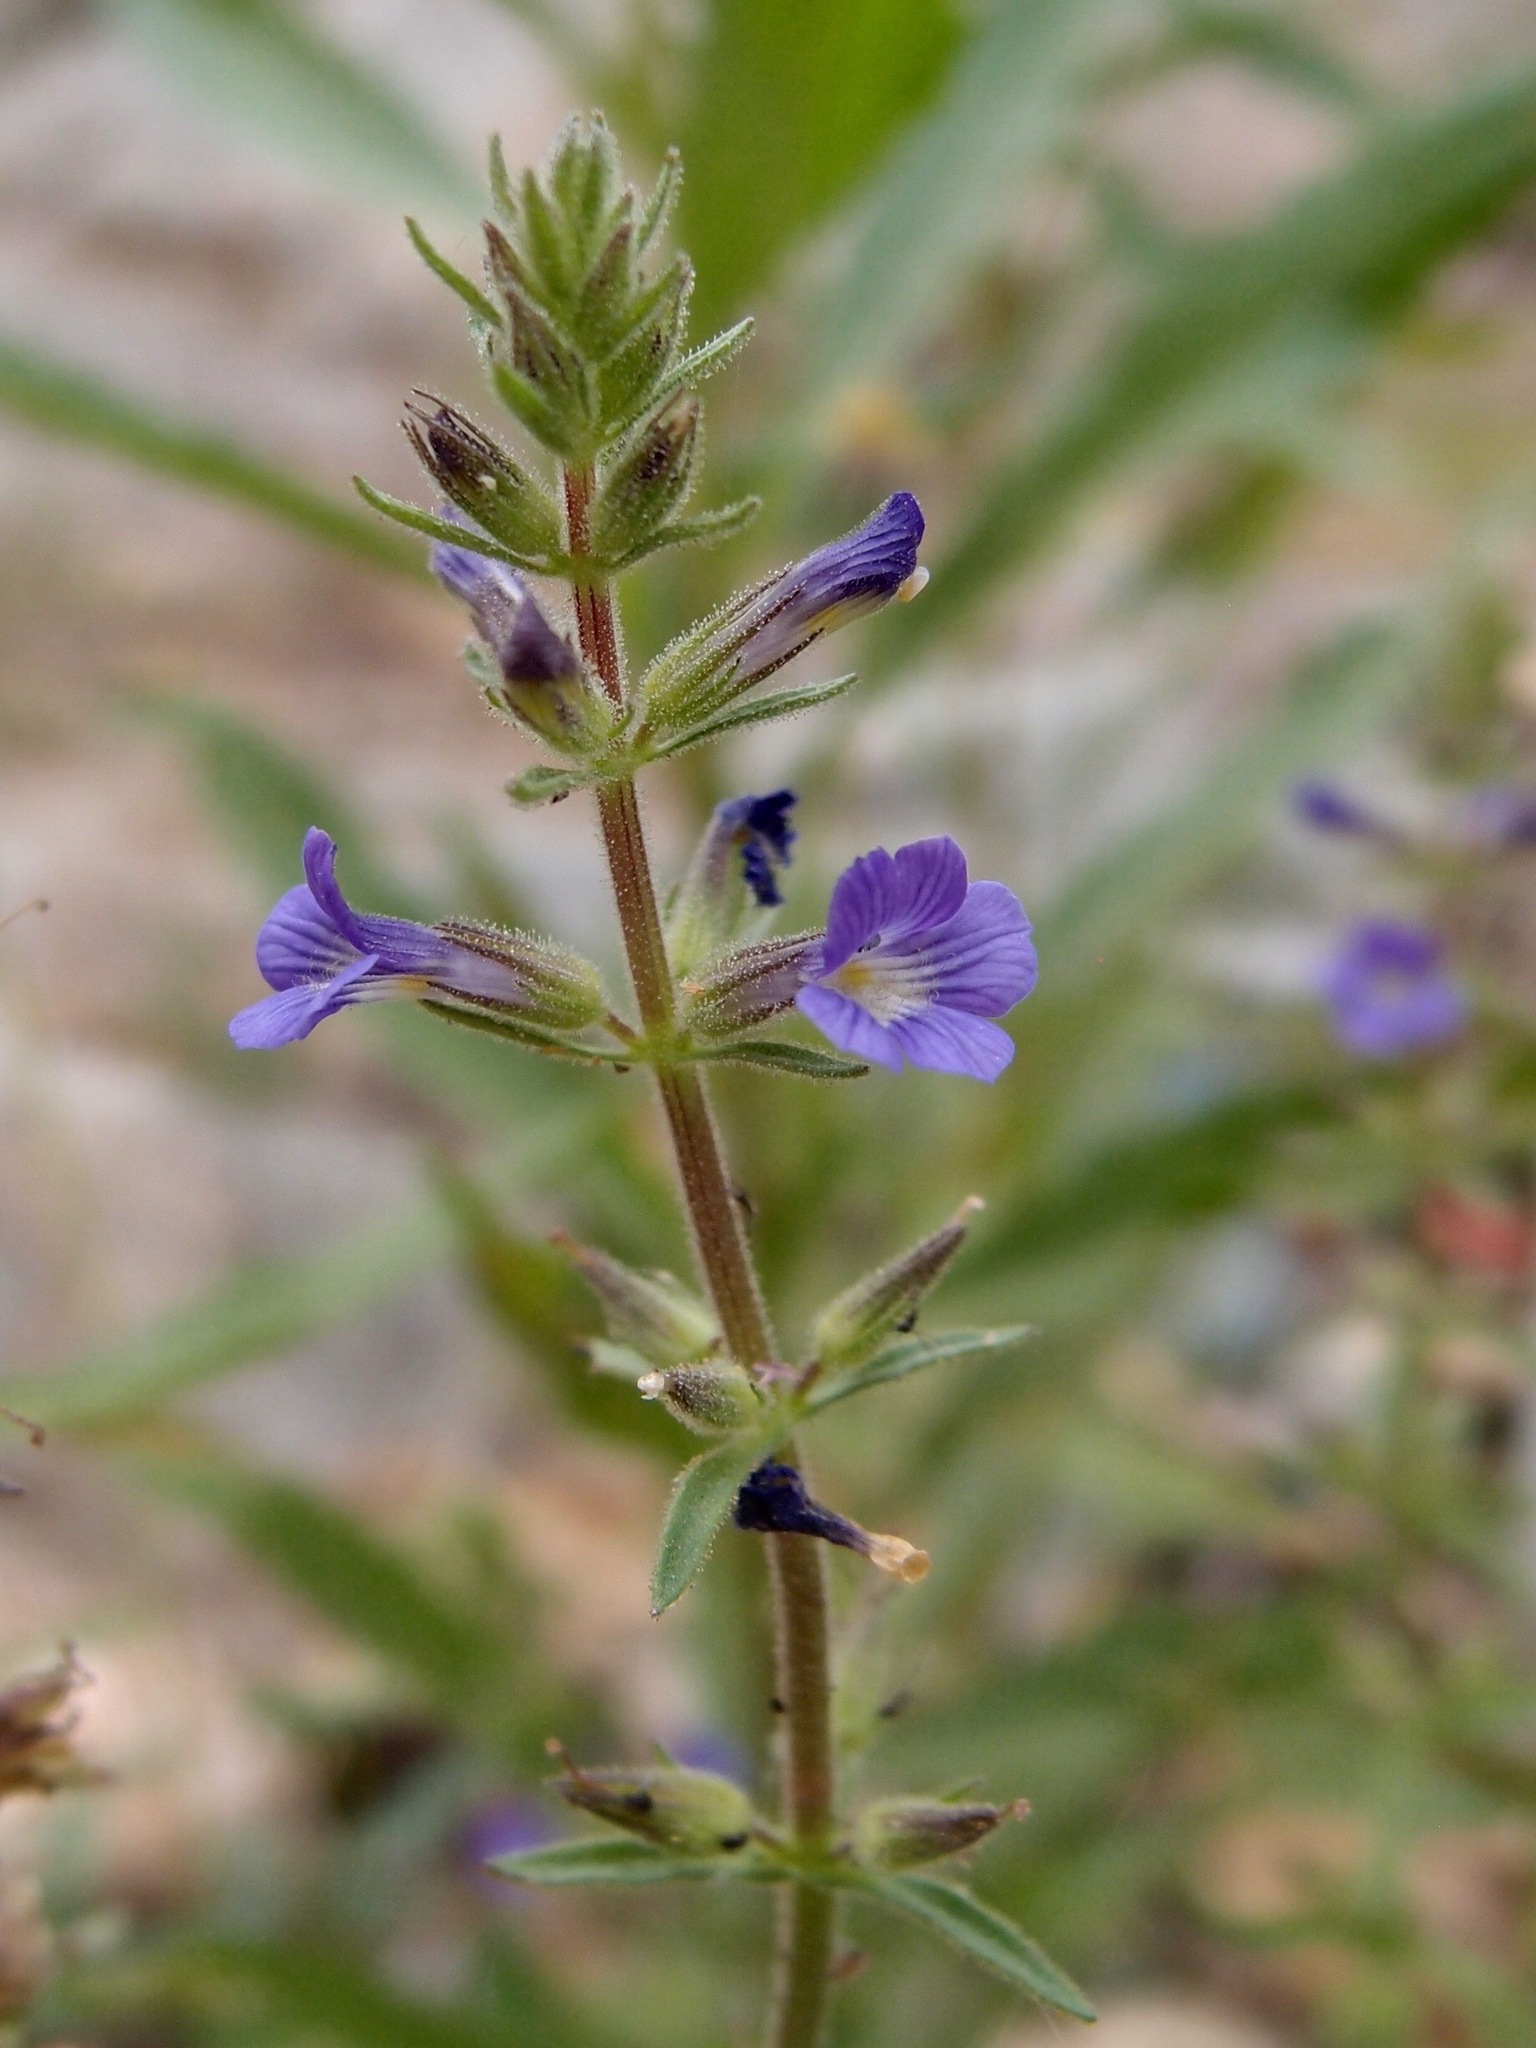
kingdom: Plantae
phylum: Tracheophyta
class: Magnoliopsida
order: Lamiales
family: Plantaginaceae
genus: Stemodia
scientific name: Stemodia durantifolia
